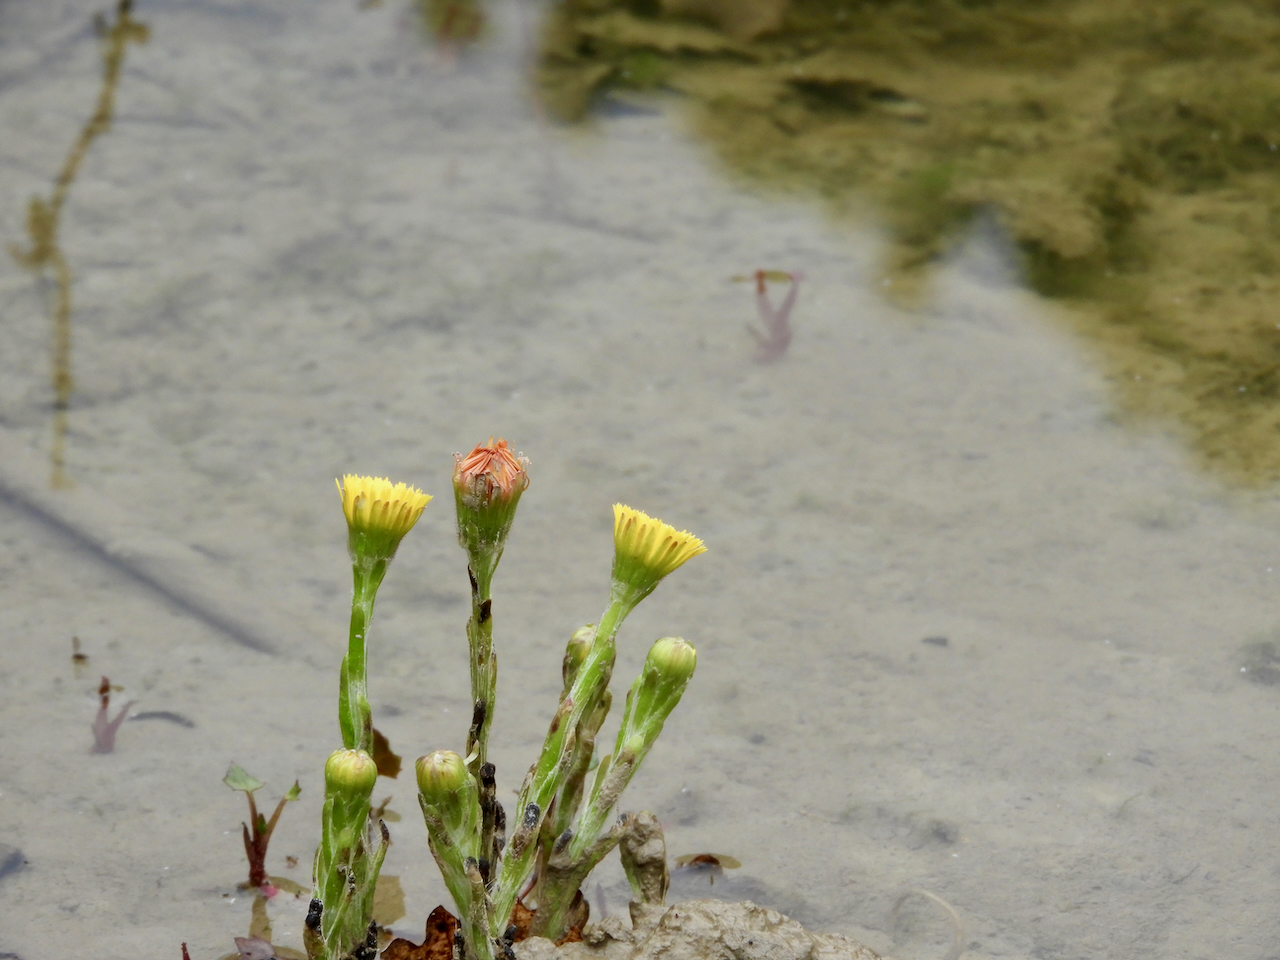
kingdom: Plantae
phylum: Tracheophyta
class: Magnoliopsida
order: Asterales
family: Asteraceae
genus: Tussilago
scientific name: Tussilago farfara
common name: Coltsfoot
